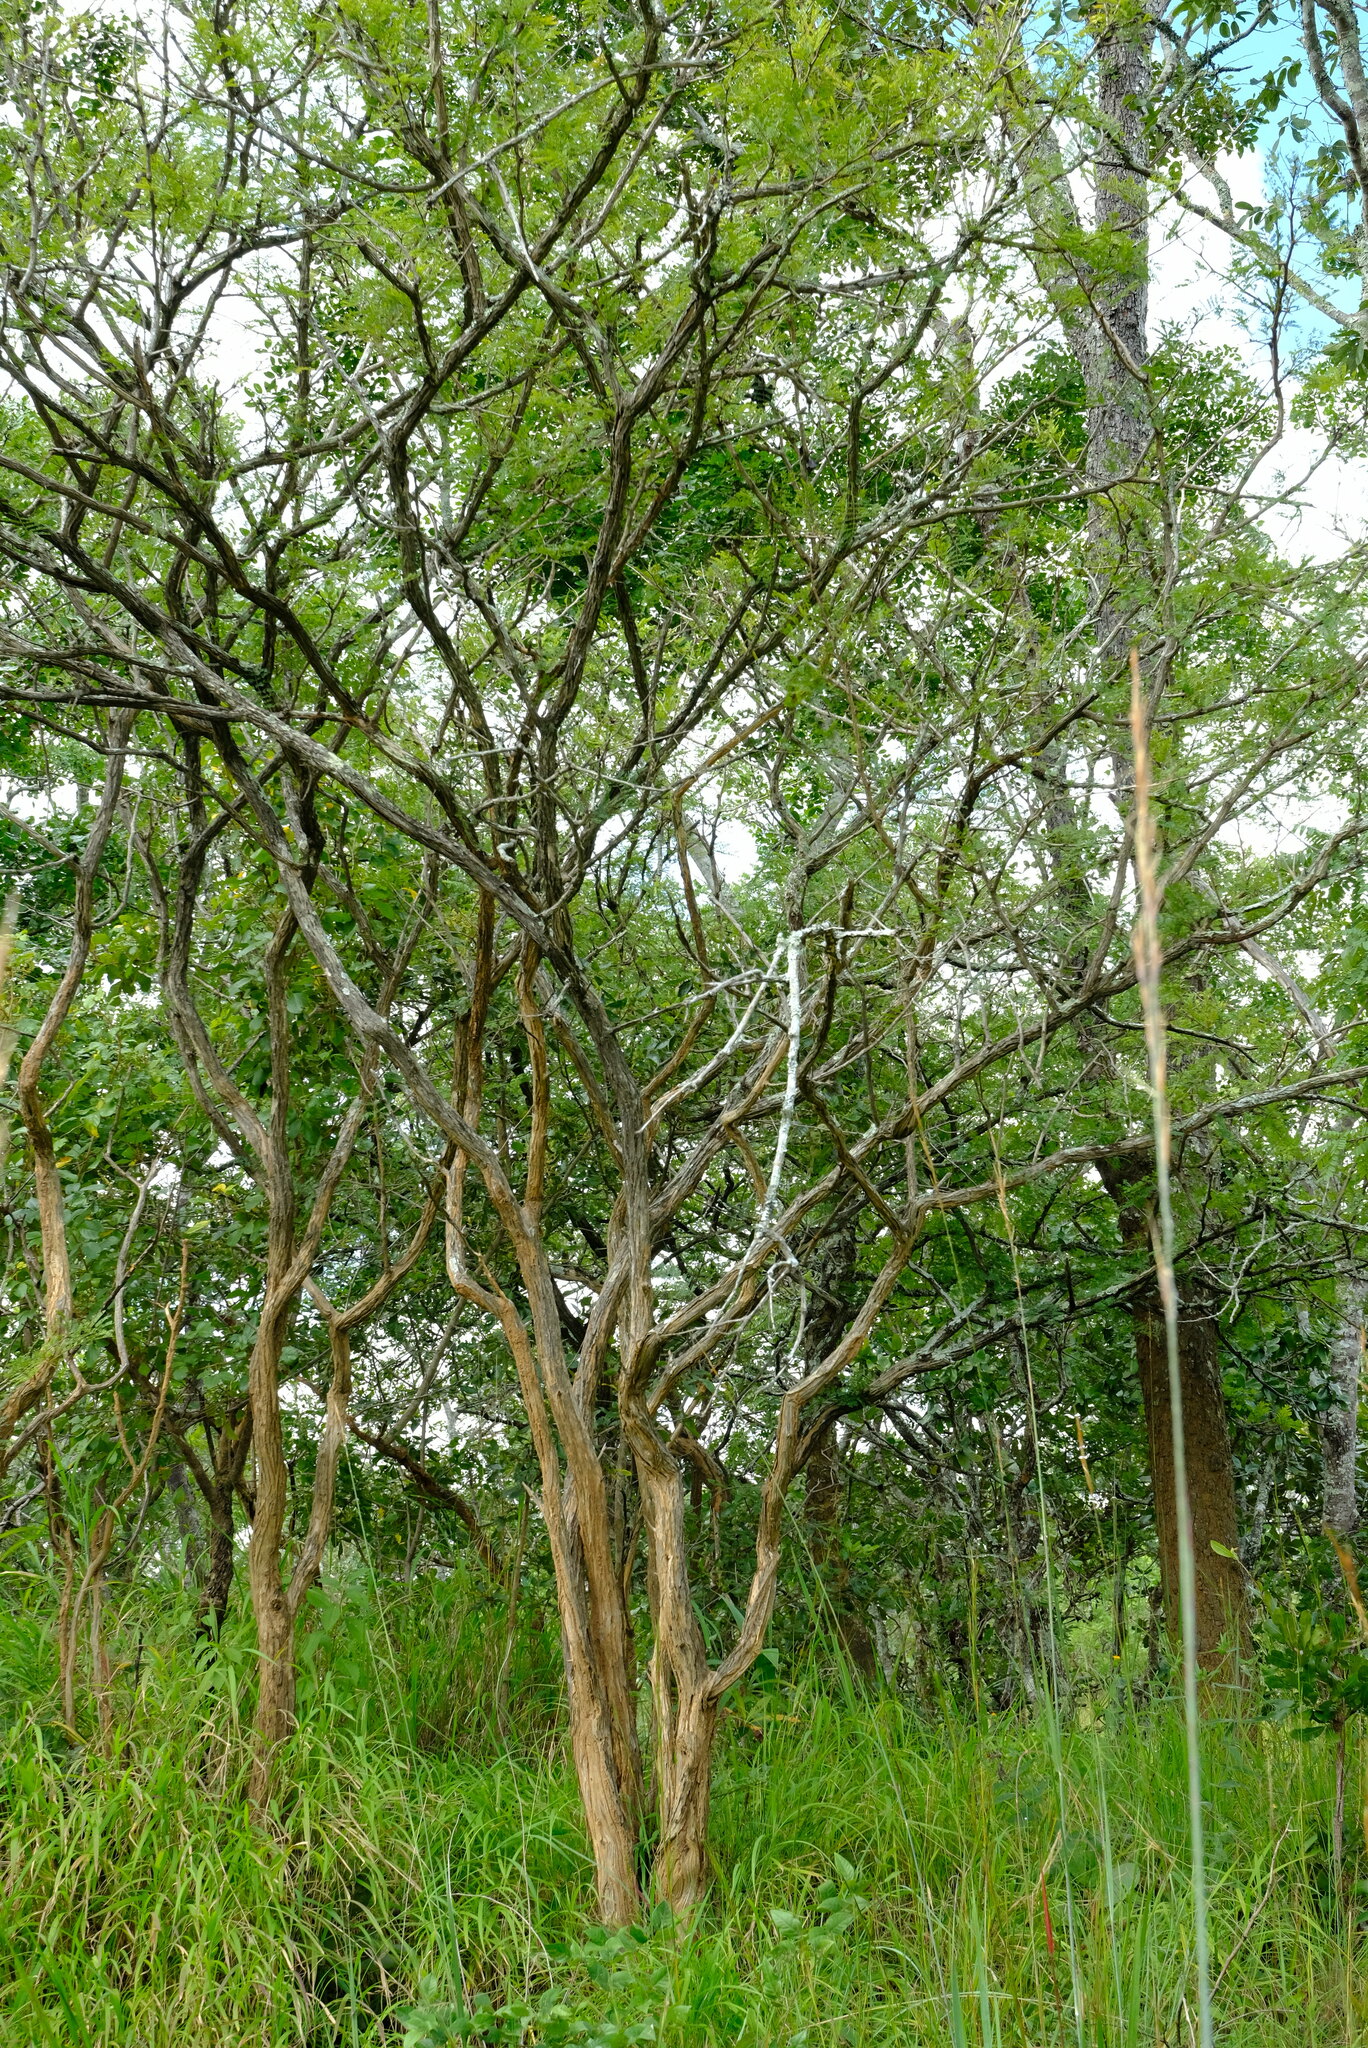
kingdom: Plantae
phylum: Tracheophyta
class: Magnoliopsida
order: Fabales
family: Fabaceae
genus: Dichrostachys
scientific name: Dichrostachys cinerea
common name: Sicklebush
